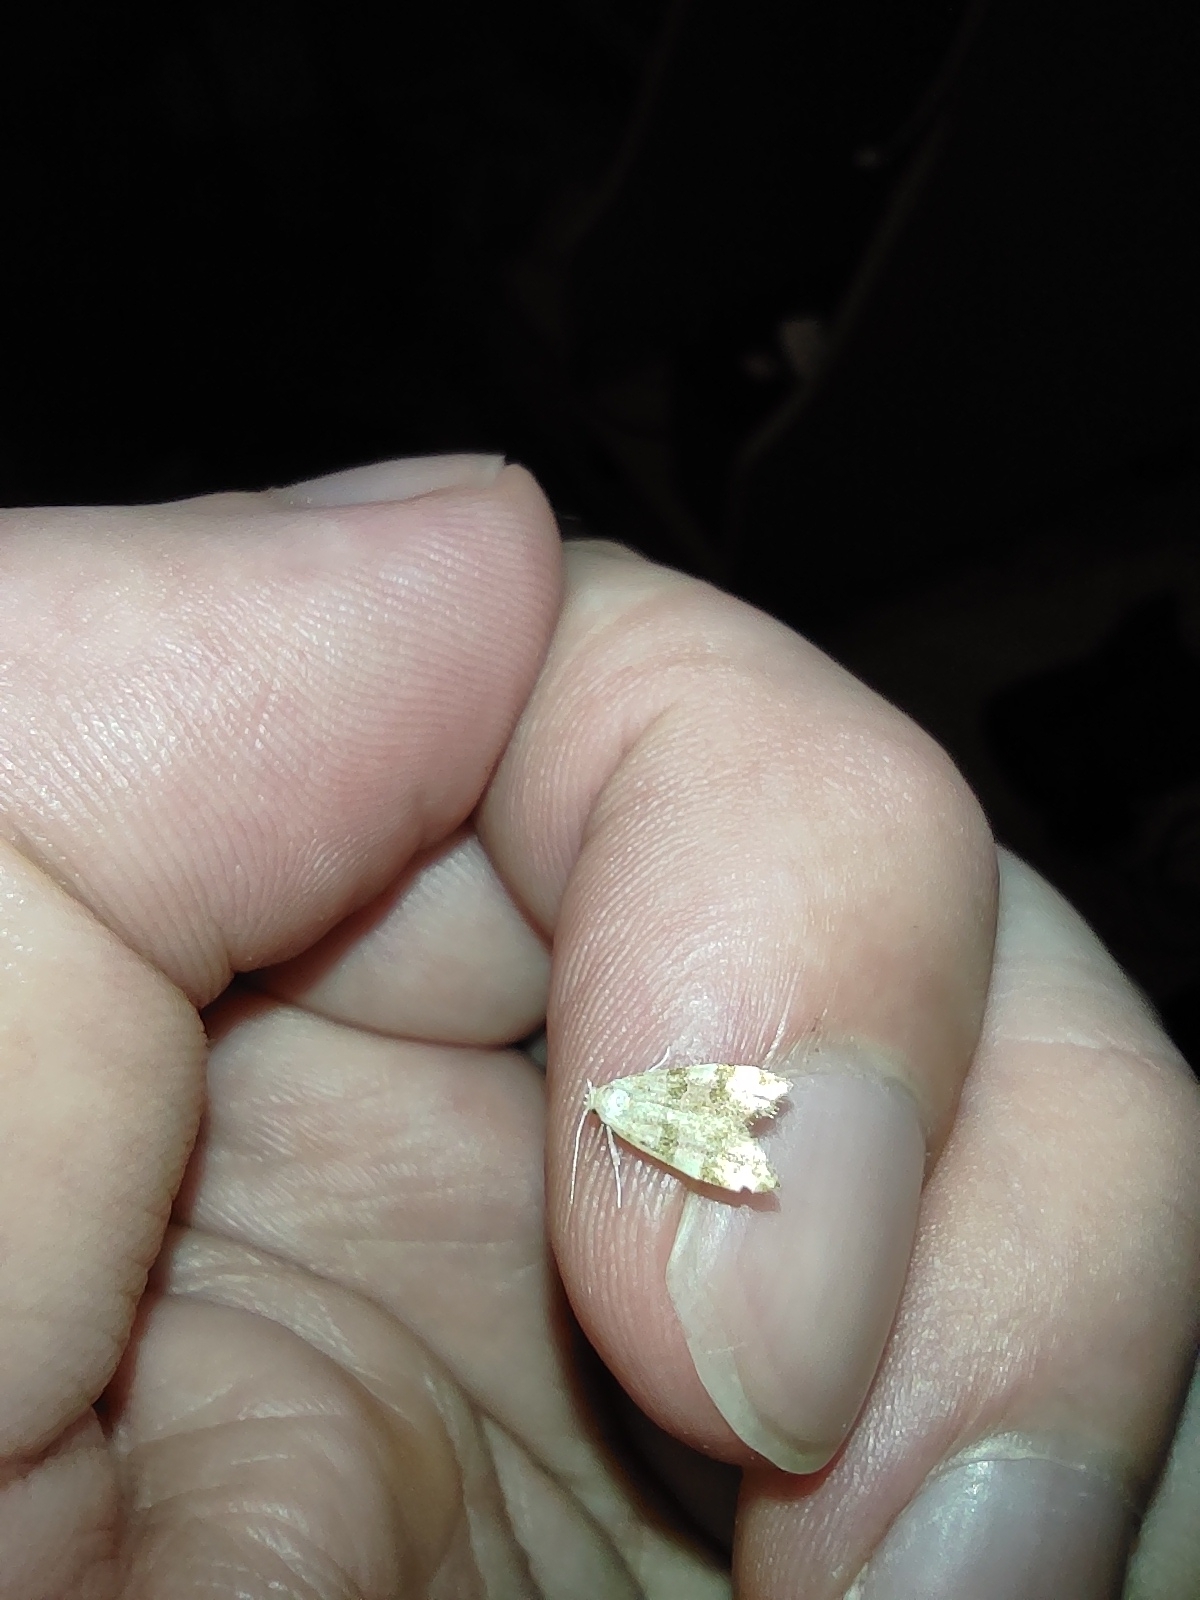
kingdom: Animalia
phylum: Arthropoda
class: Insecta
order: Lepidoptera
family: Oecophoridae
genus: Deuterogonia
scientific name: Deuterogonia pudorina
